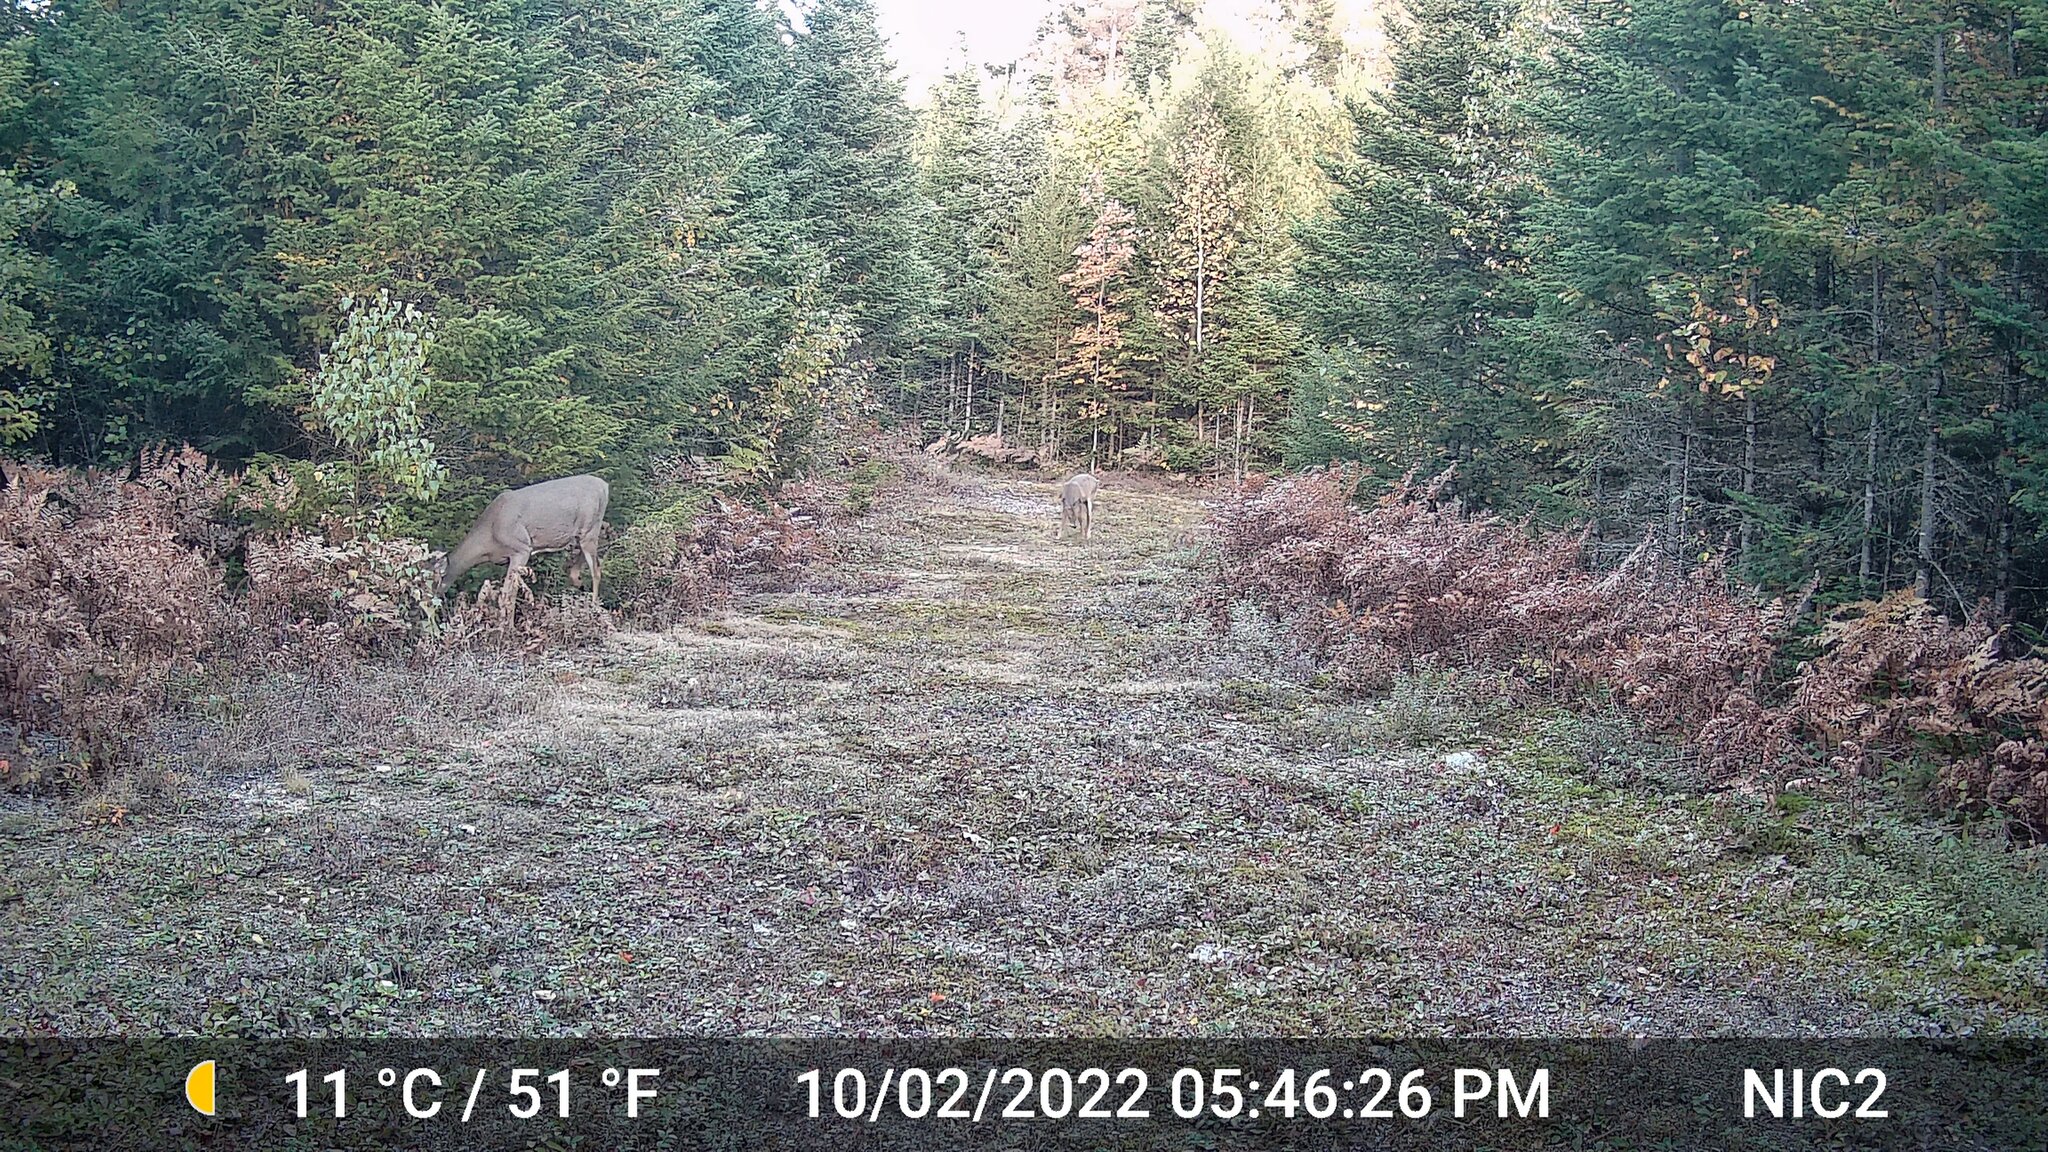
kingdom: Animalia
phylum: Chordata
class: Mammalia
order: Artiodactyla
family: Cervidae
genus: Odocoileus
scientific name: Odocoileus virginianus
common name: White-tailed deer
